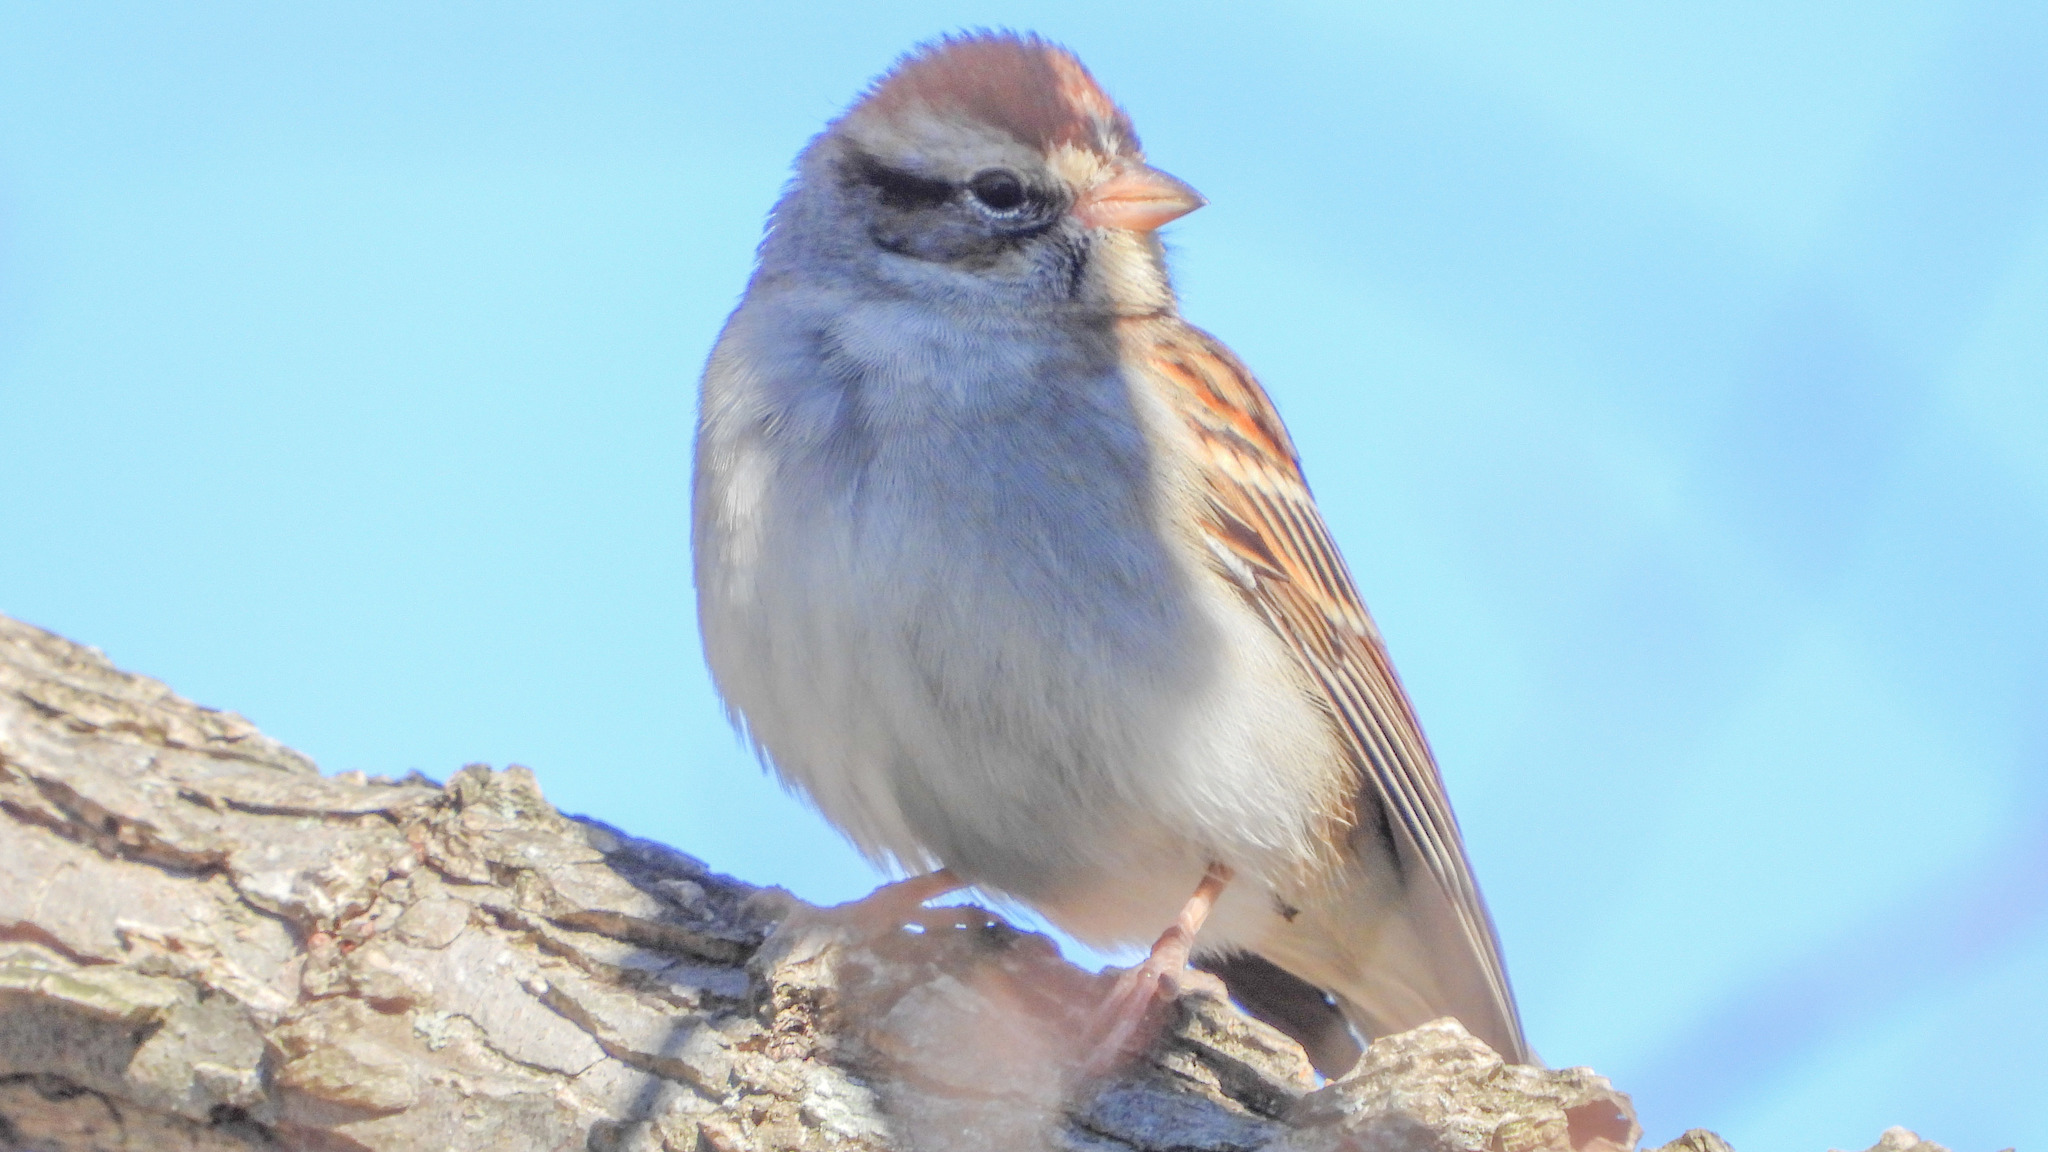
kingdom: Animalia
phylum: Chordata
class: Aves
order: Passeriformes
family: Passerellidae
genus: Spizella
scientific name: Spizella passerina
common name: Chipping sparrow
